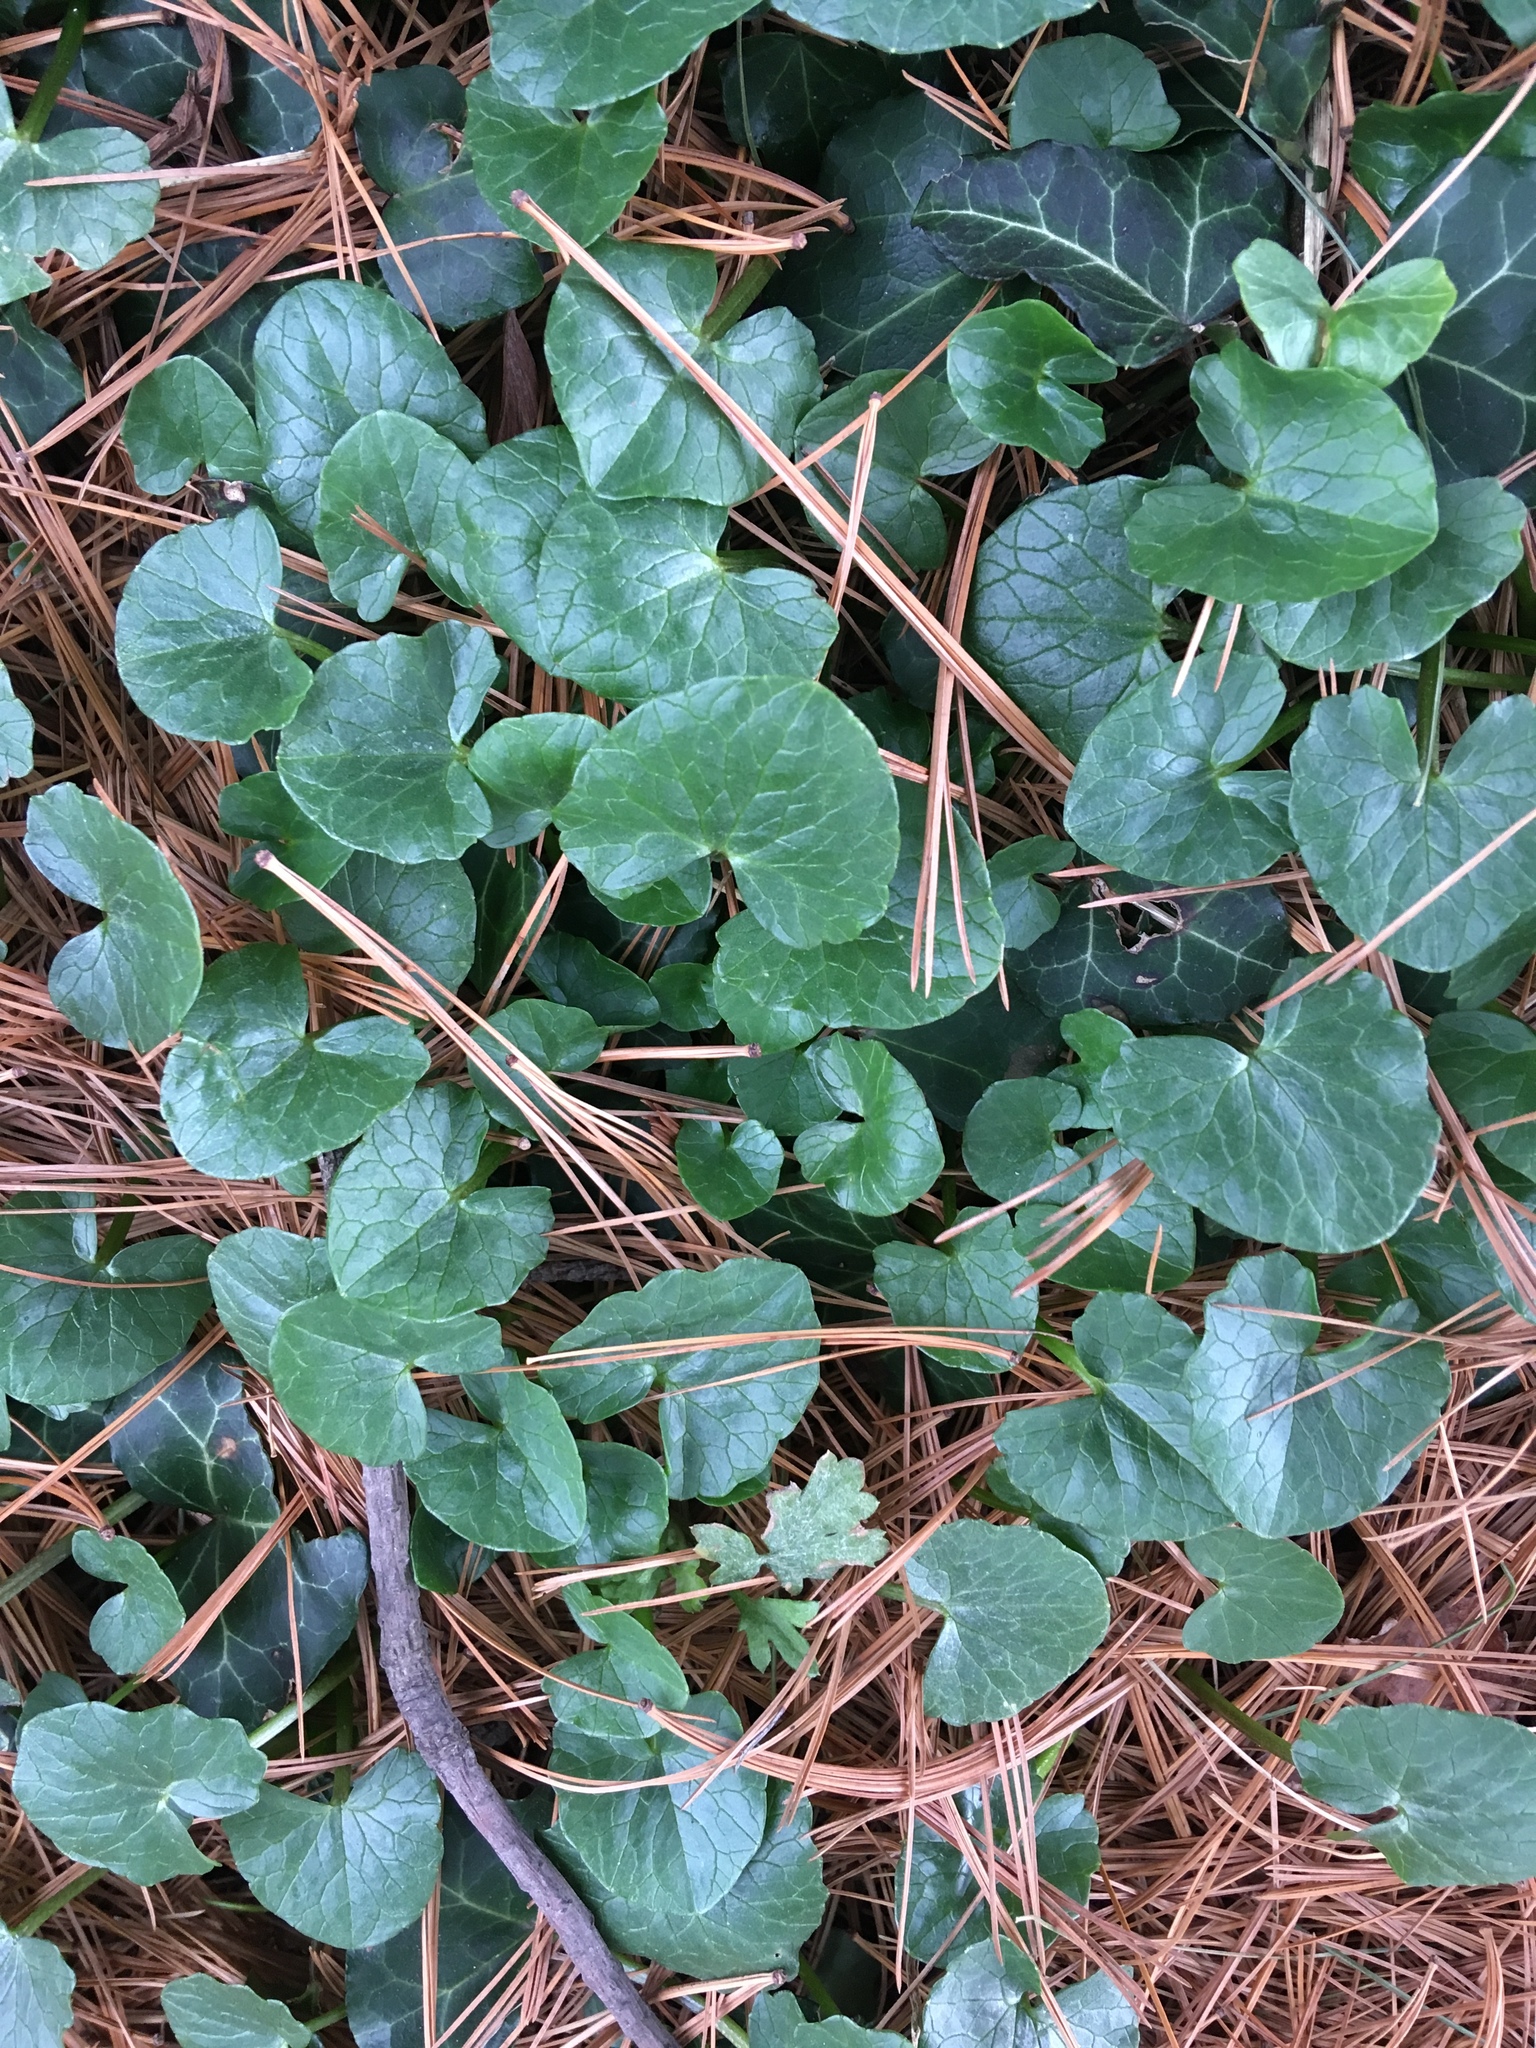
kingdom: Plantae
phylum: Tracheophyta
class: Magnoliopsida
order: Ranunculales
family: Ranunculaceae
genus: Ficaria
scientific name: Ficaria verna
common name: Lesser celandine
